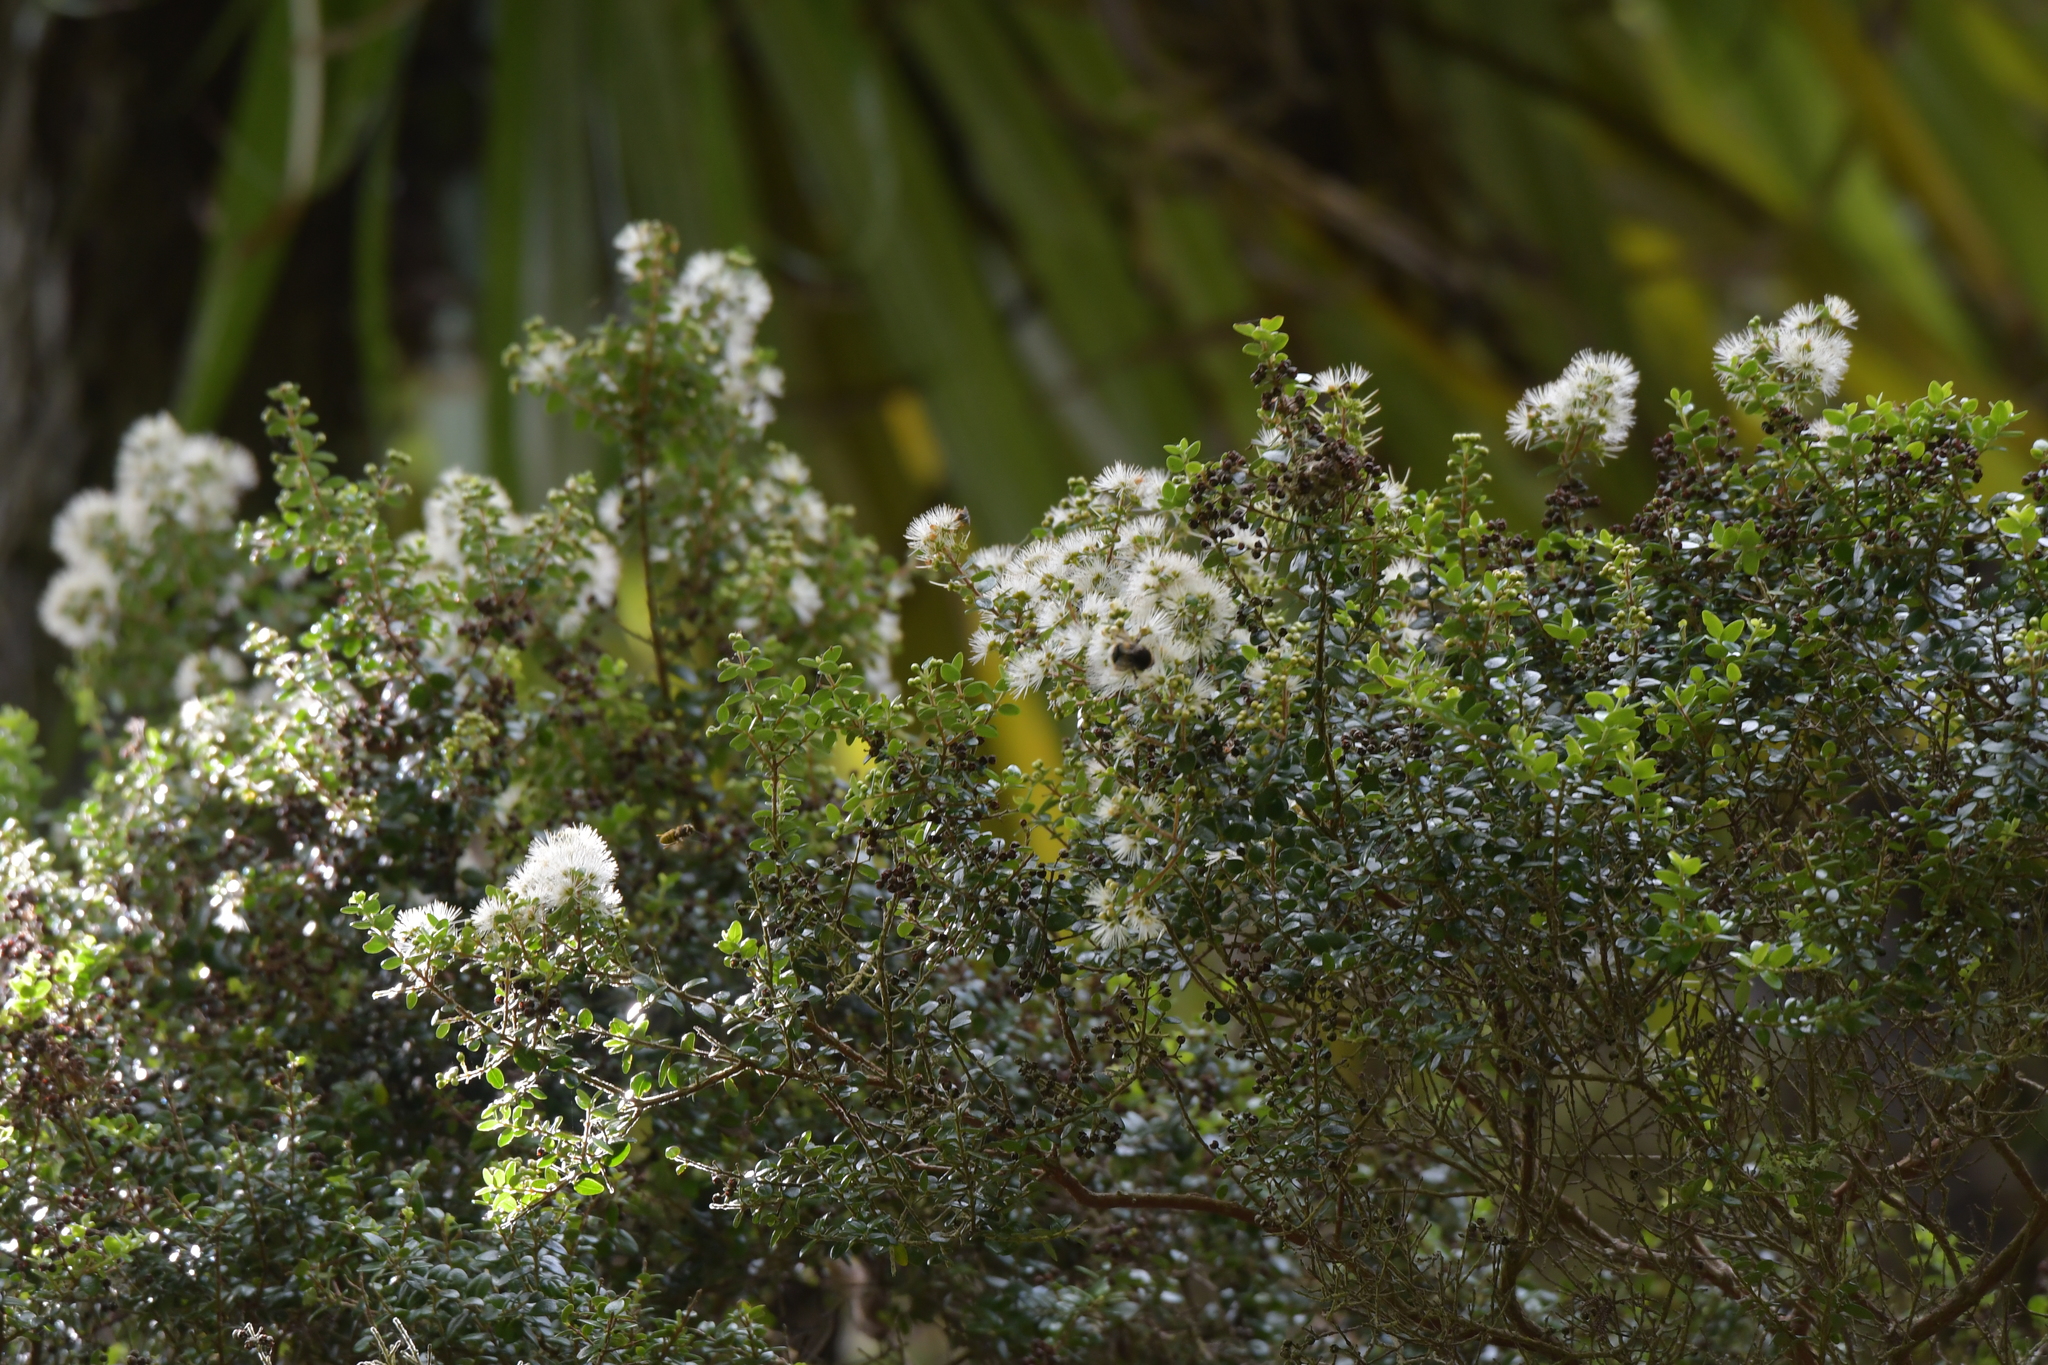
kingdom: Plantae
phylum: Tracheophyta
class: Magnoliopsida
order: Myrtales
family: Myrtaceae
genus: Metrosideros
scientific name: Metrosideros perforata
